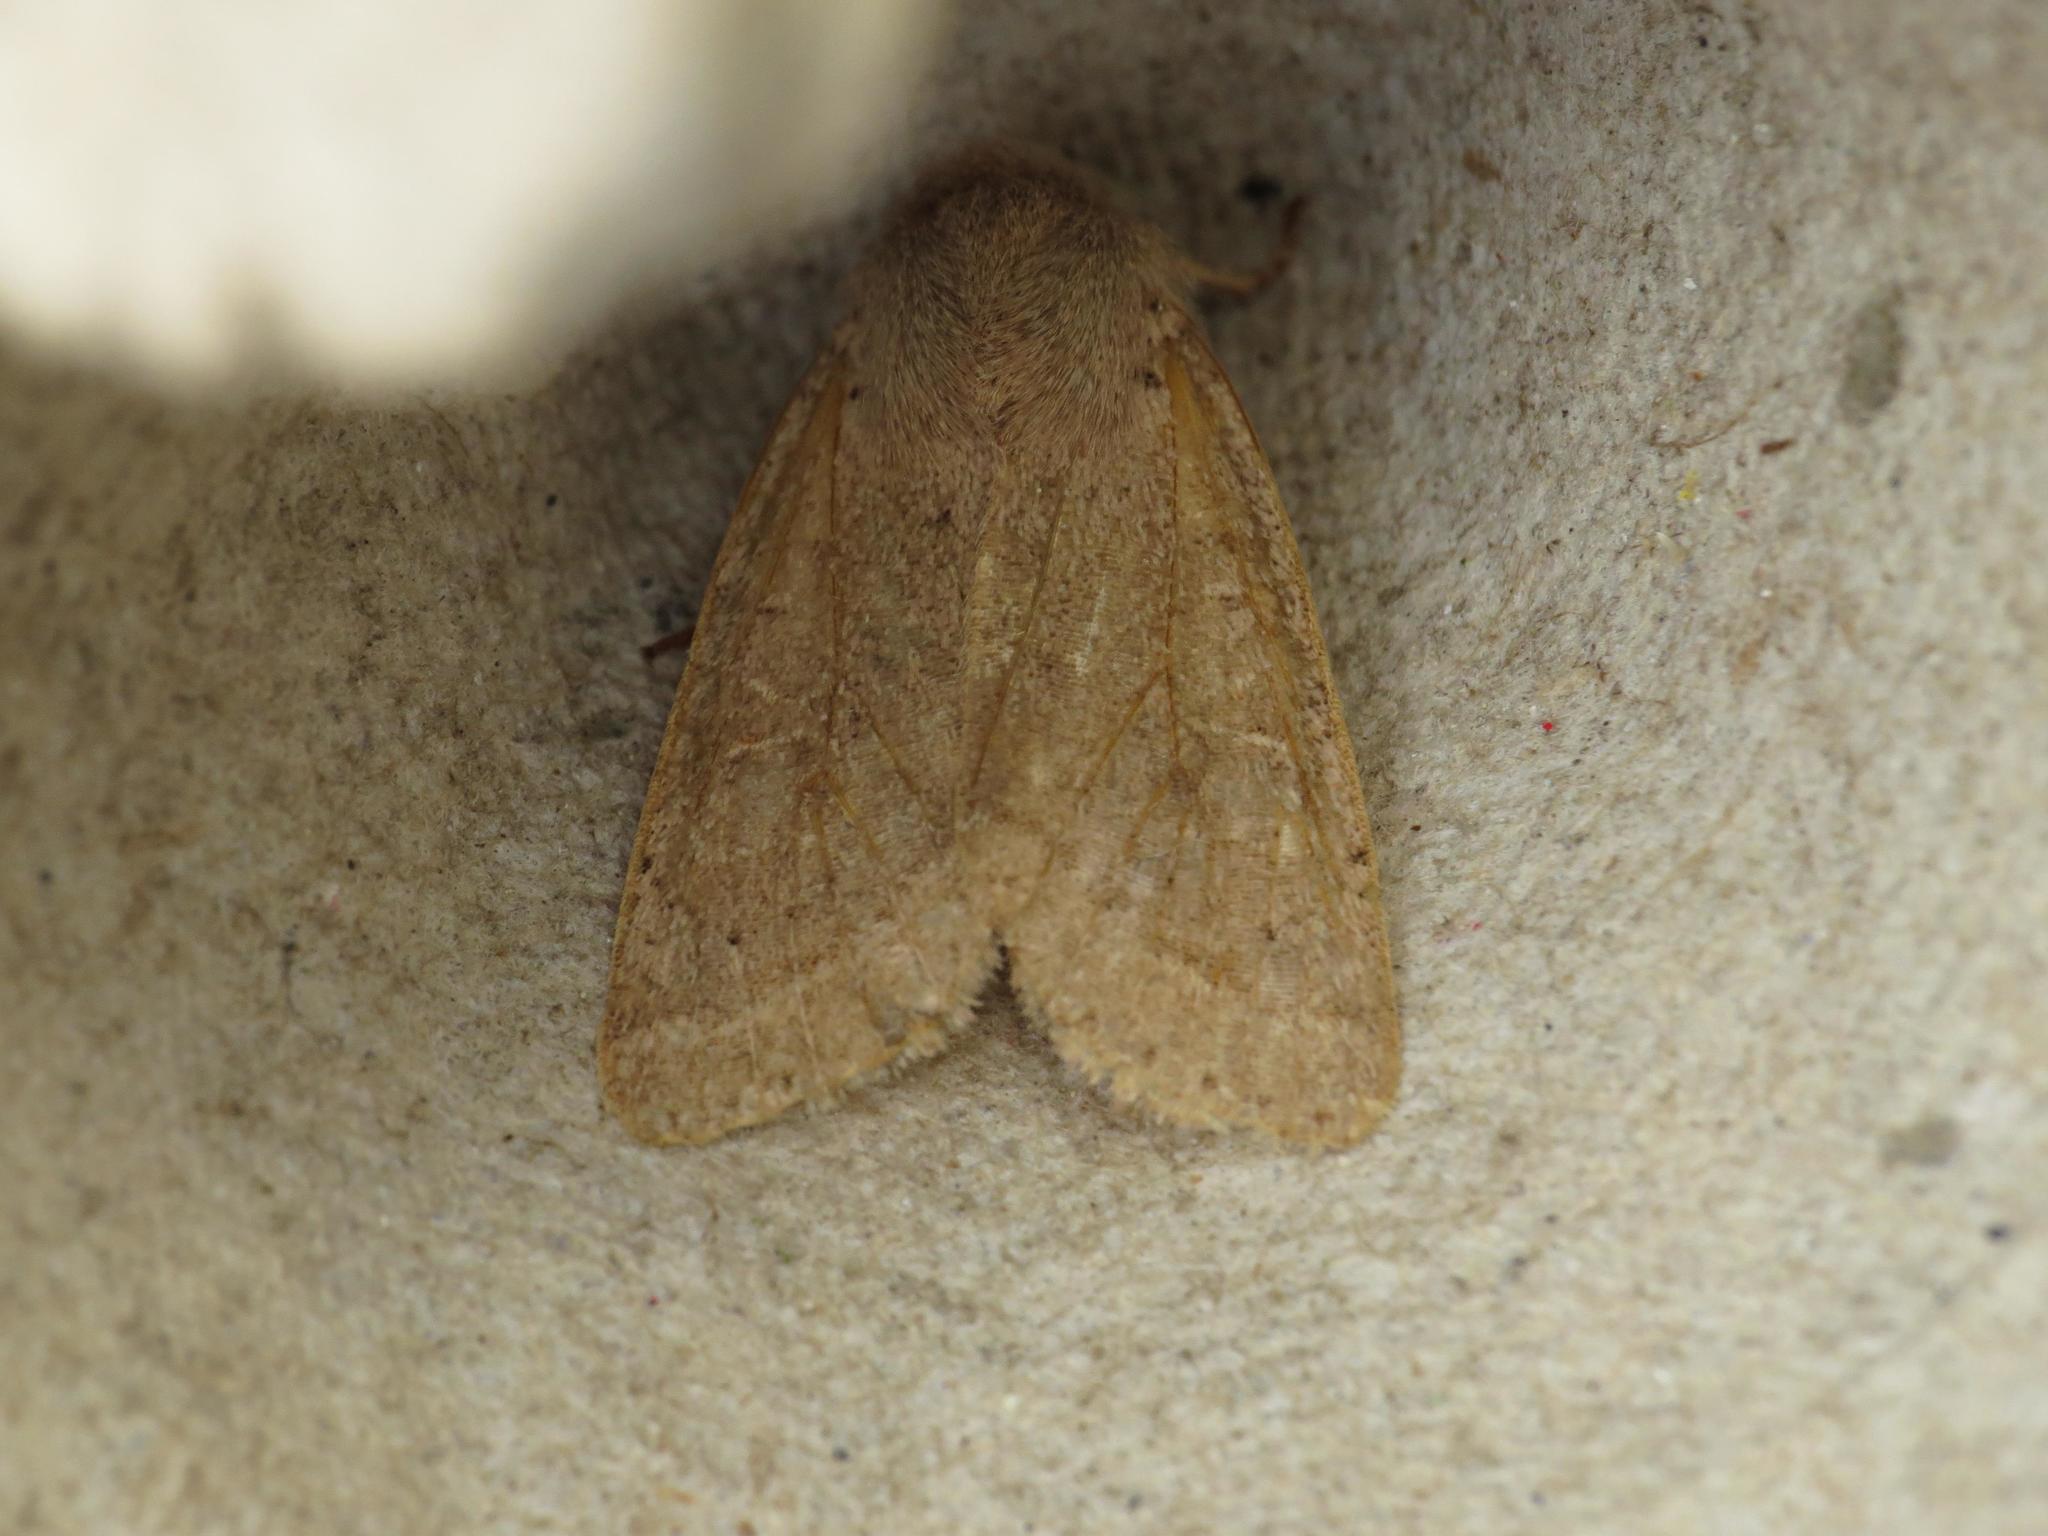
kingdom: Animalia
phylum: Arthropoda
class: Insecta
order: Lepidoptera
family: Noctuidae
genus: Orthosia
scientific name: Orthosia cerasi
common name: Common quaker
